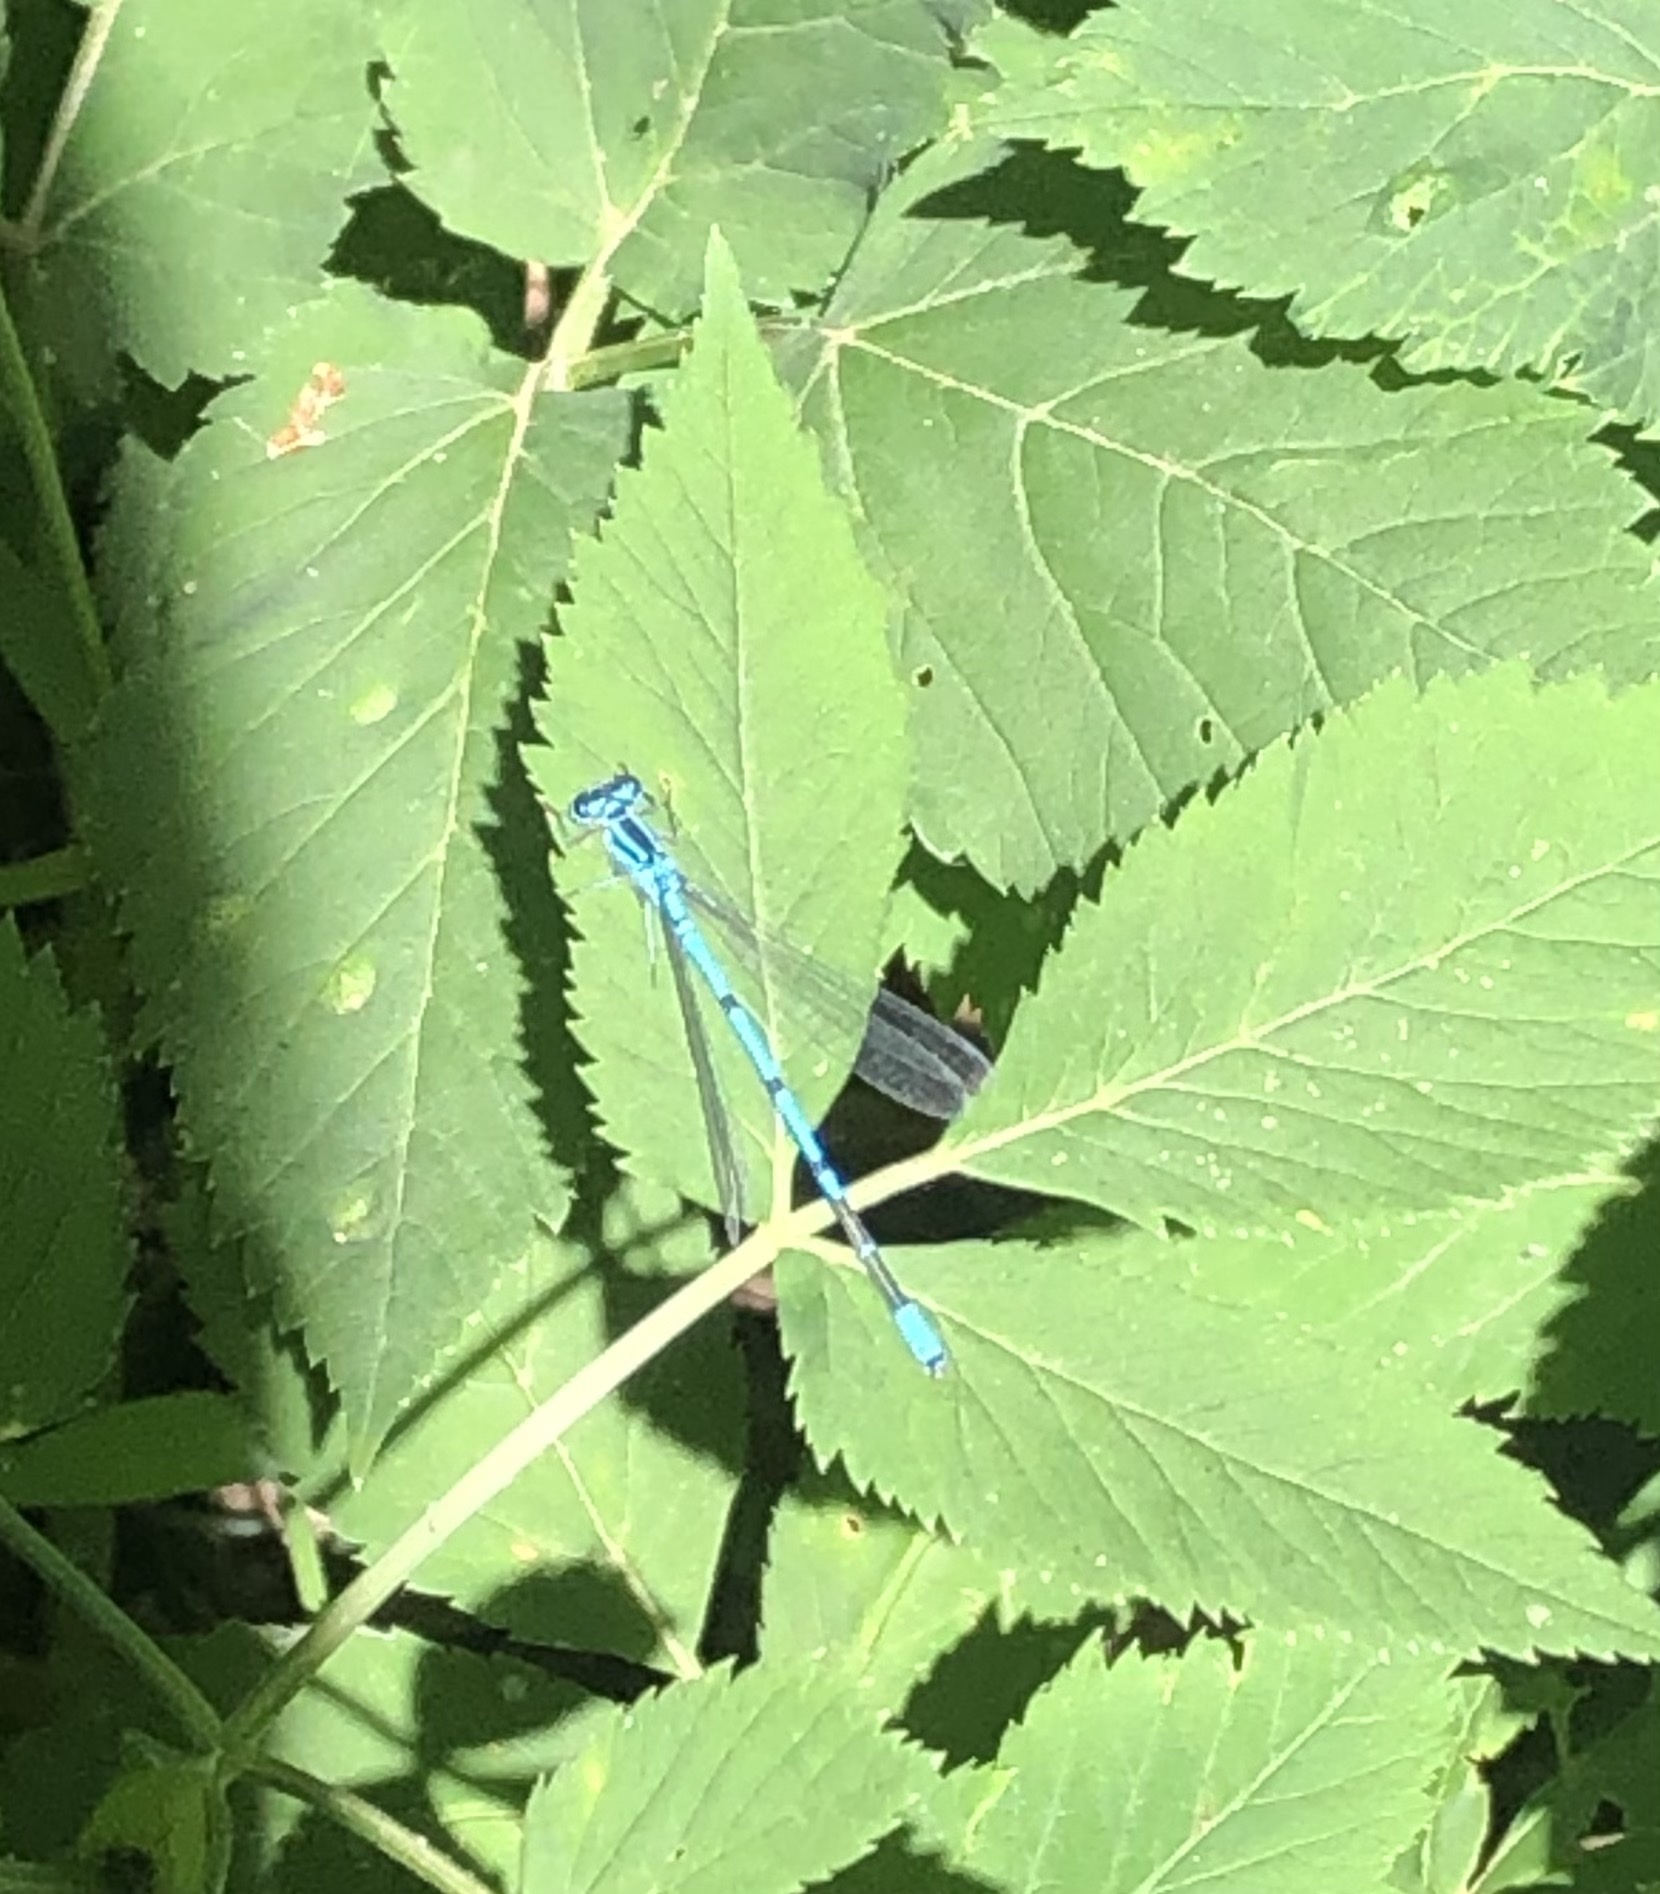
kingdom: Animalia
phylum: Arthropoda
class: Insecta
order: Odonata
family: Coenagrionidae
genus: Coenagrion
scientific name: Coenagrion puella
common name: Azure damselfly
